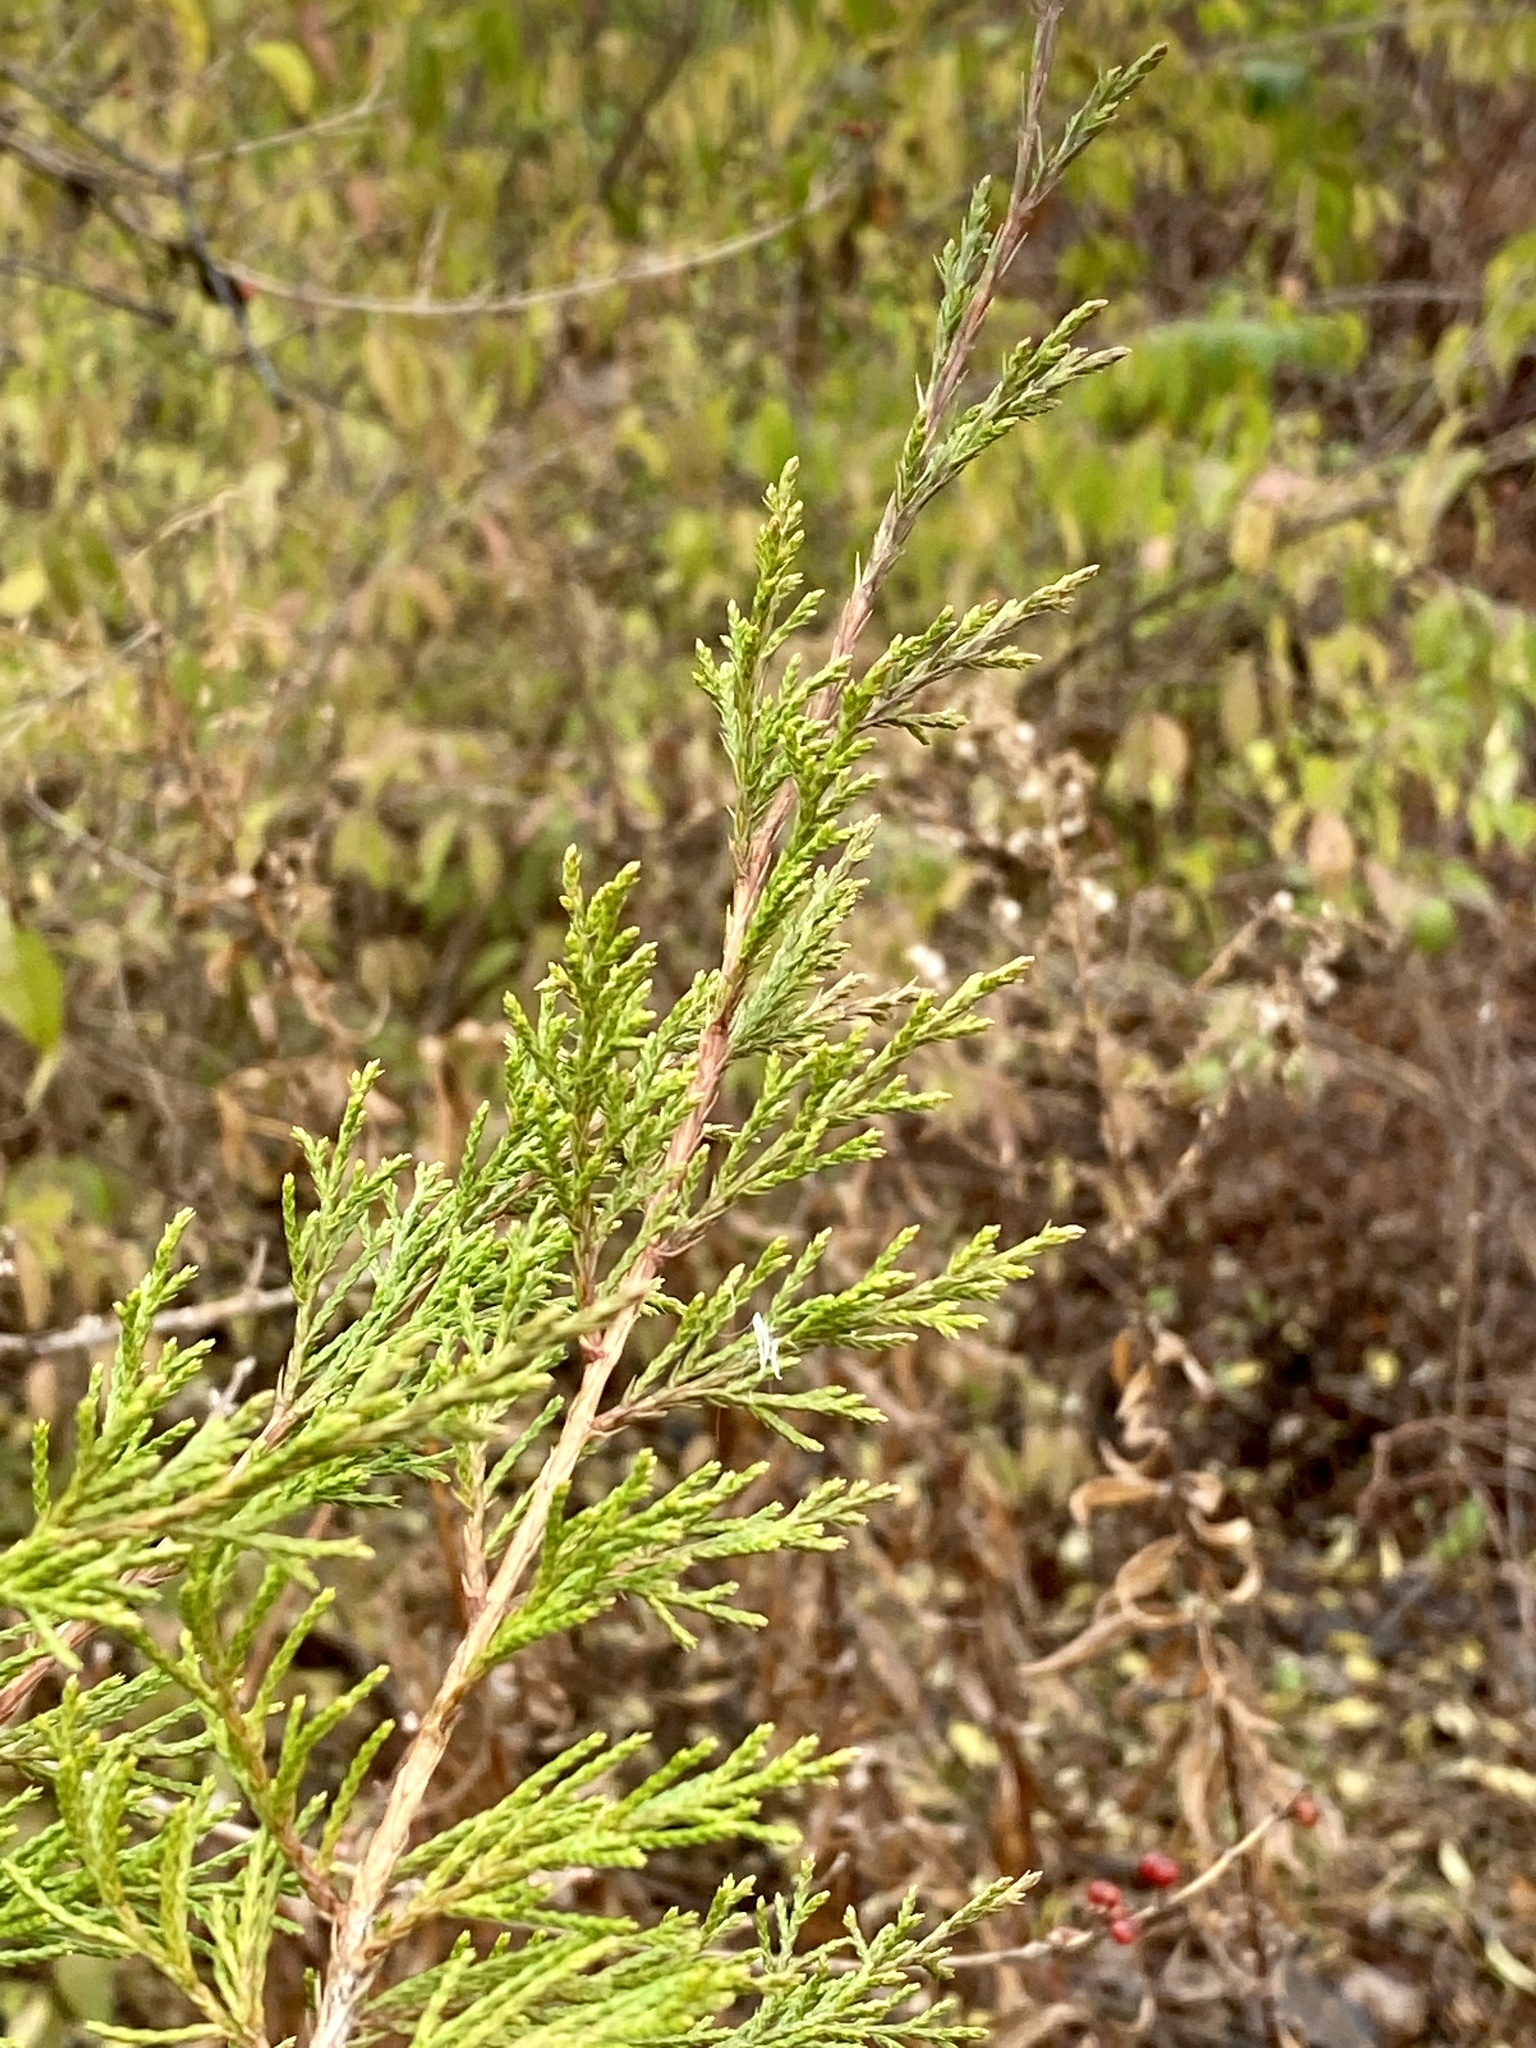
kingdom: Plantae
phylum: Tracheophyta
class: Pinopsida
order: Pinales
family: Cupressaceae
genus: Juniperus
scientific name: Juniperus virginiana
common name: Red juniper
